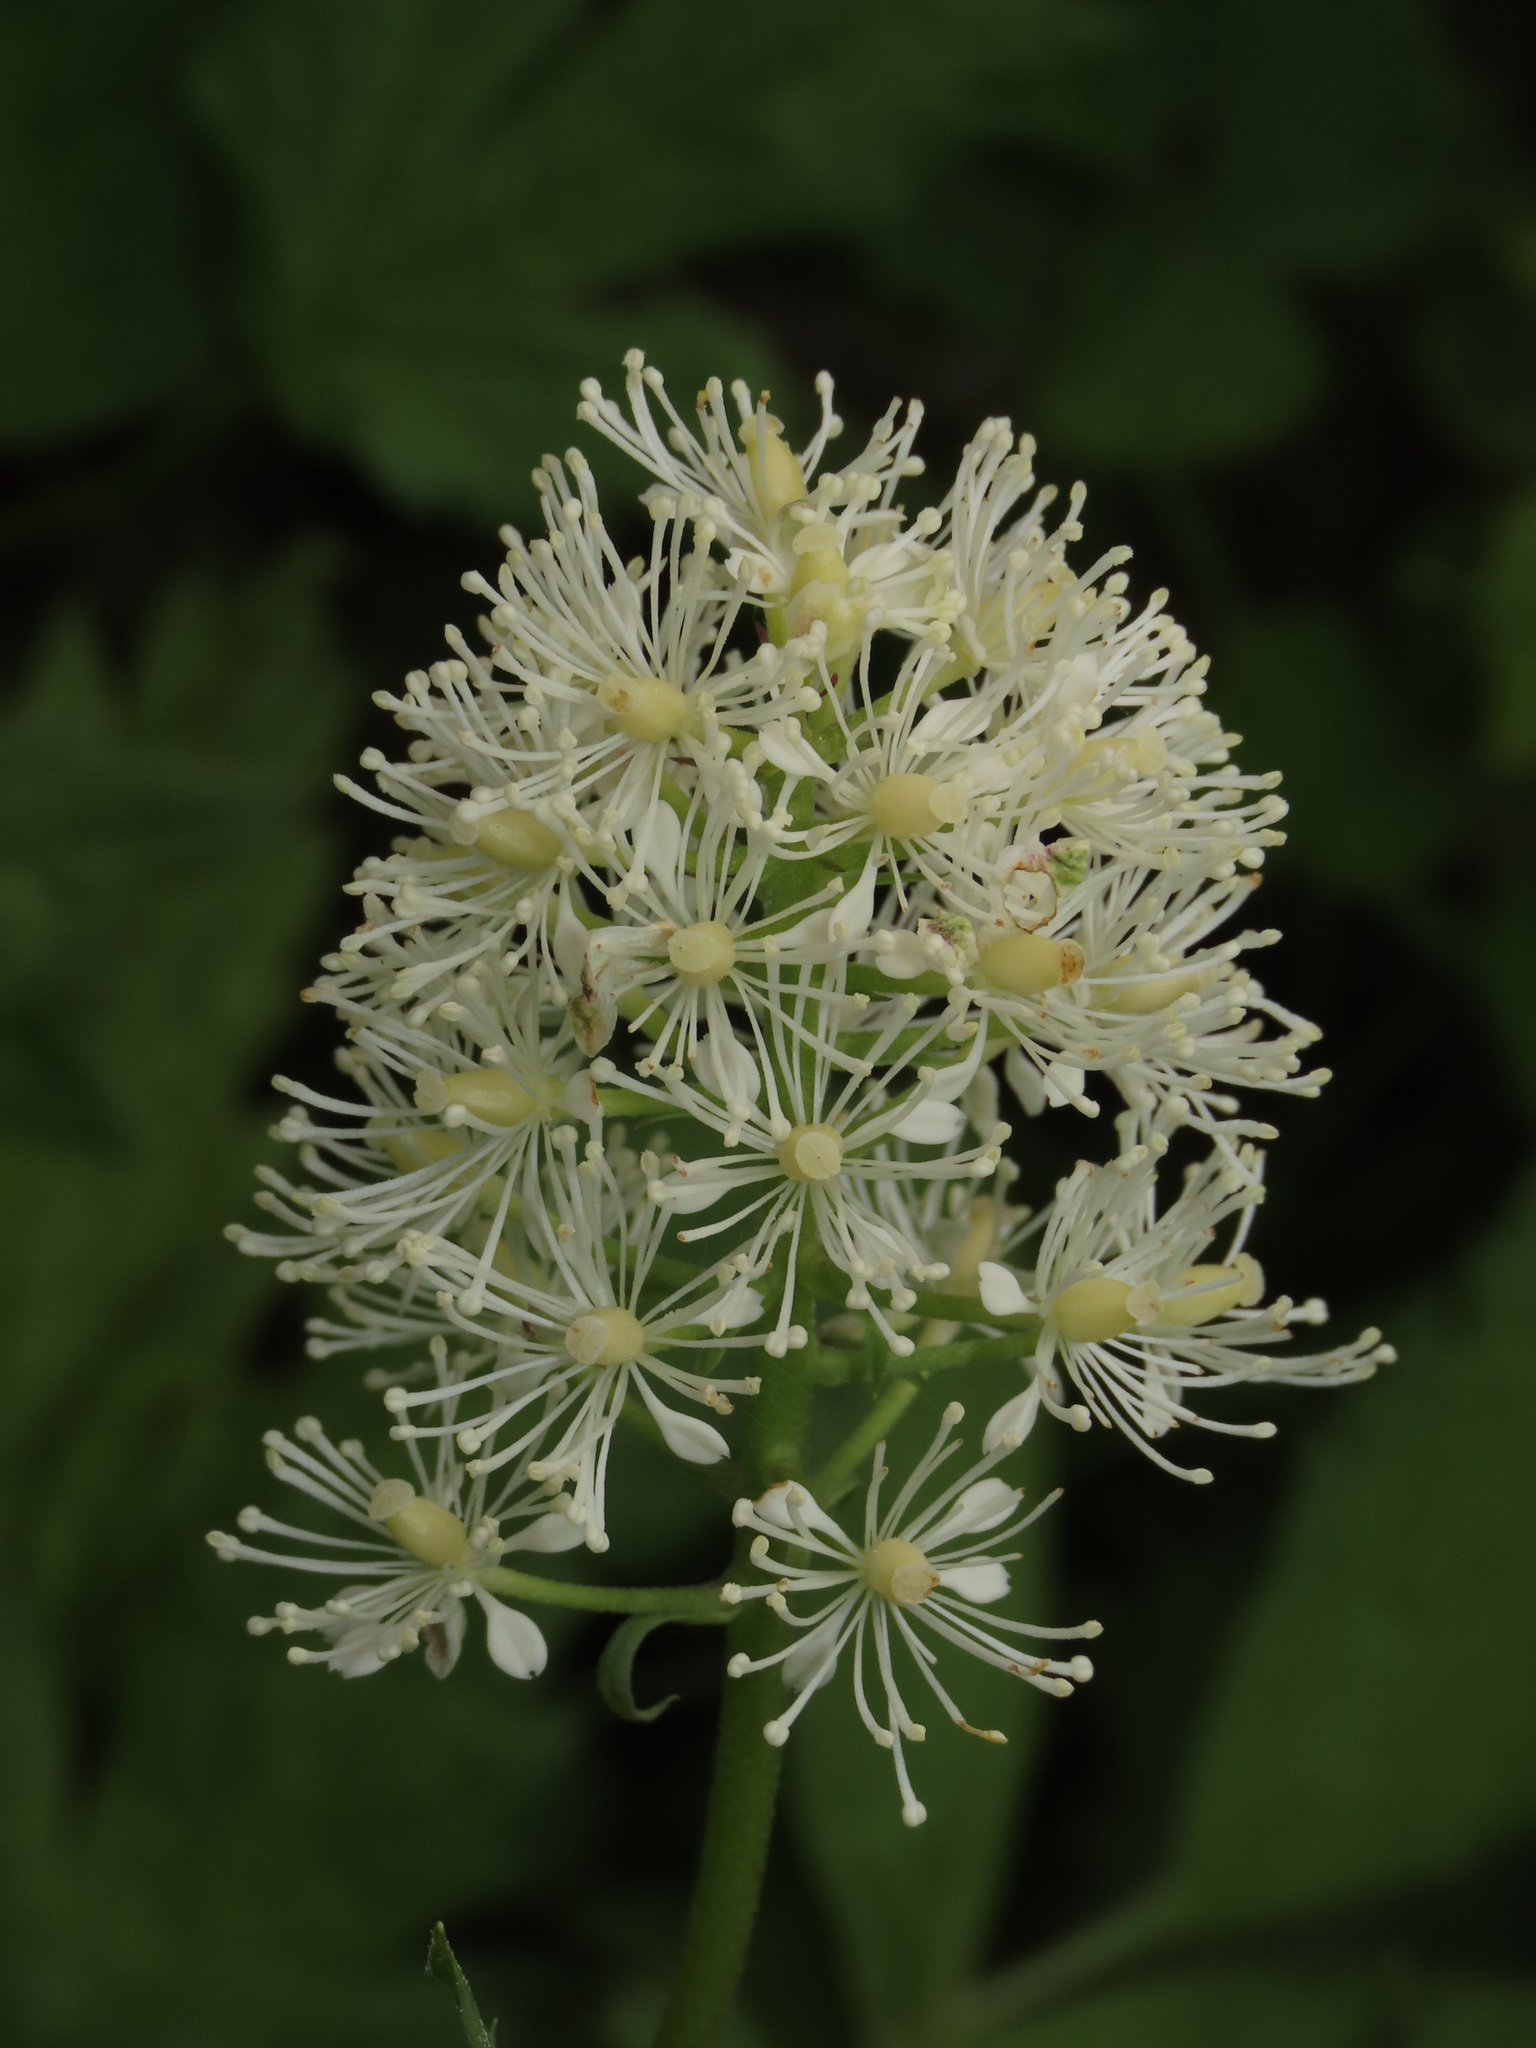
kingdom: Plantae
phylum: Tracheophyta
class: Magnoliopsida
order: Ranunculales
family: Ranunculaceae
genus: Actaea
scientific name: Actaea spicata
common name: Baneberry
